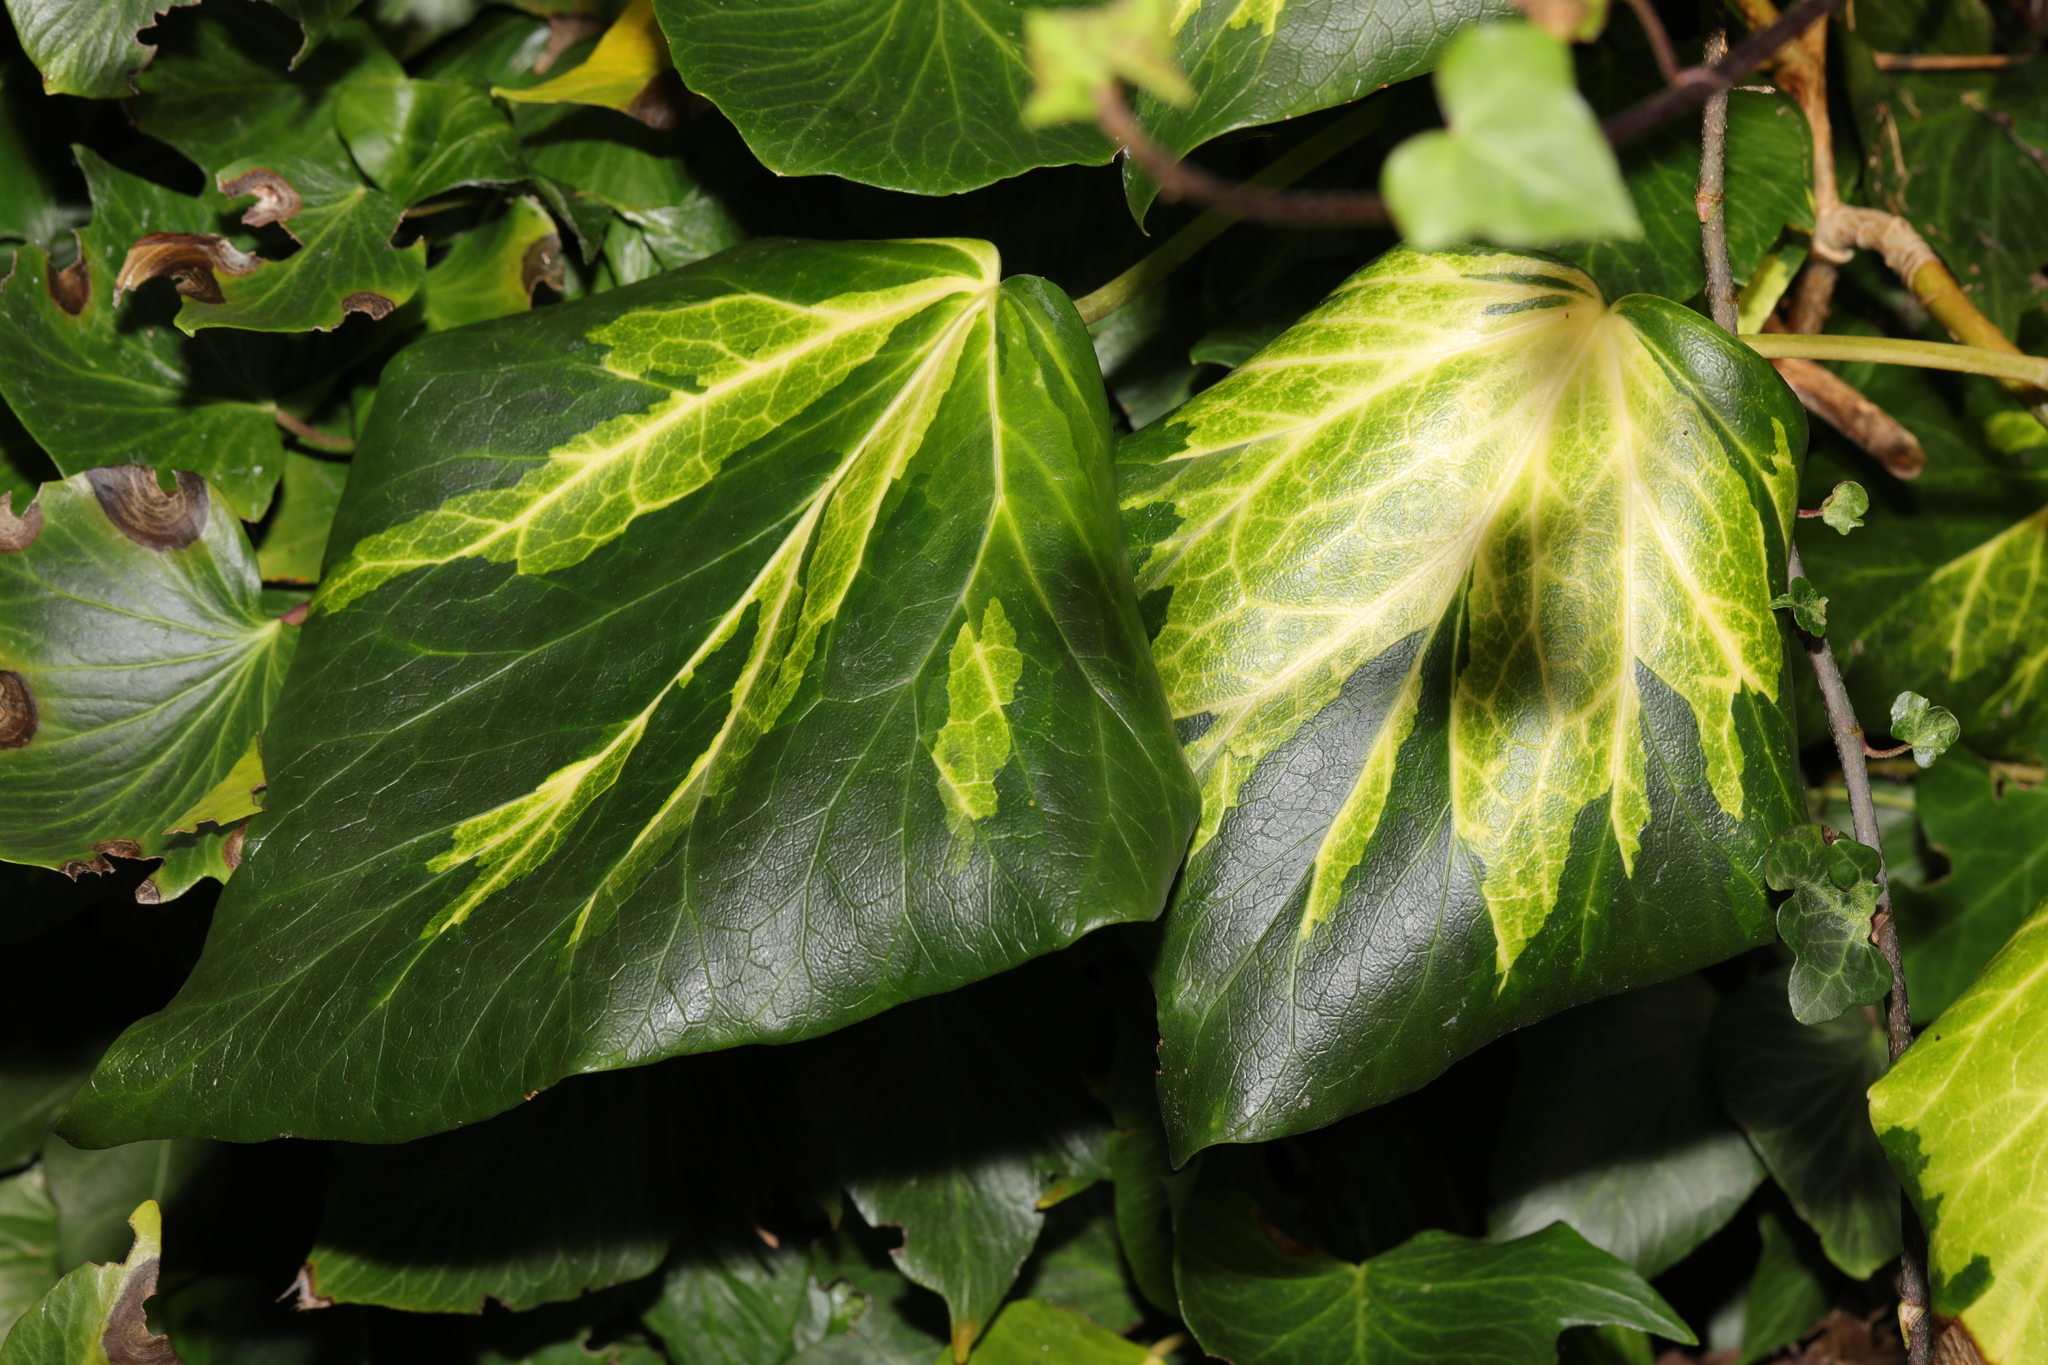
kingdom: Plantae
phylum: Tracheophyta
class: Magnoliopsida
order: Apiales
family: Araliaceae
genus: Hedera
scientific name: Hedera colchica
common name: Persian ivy
